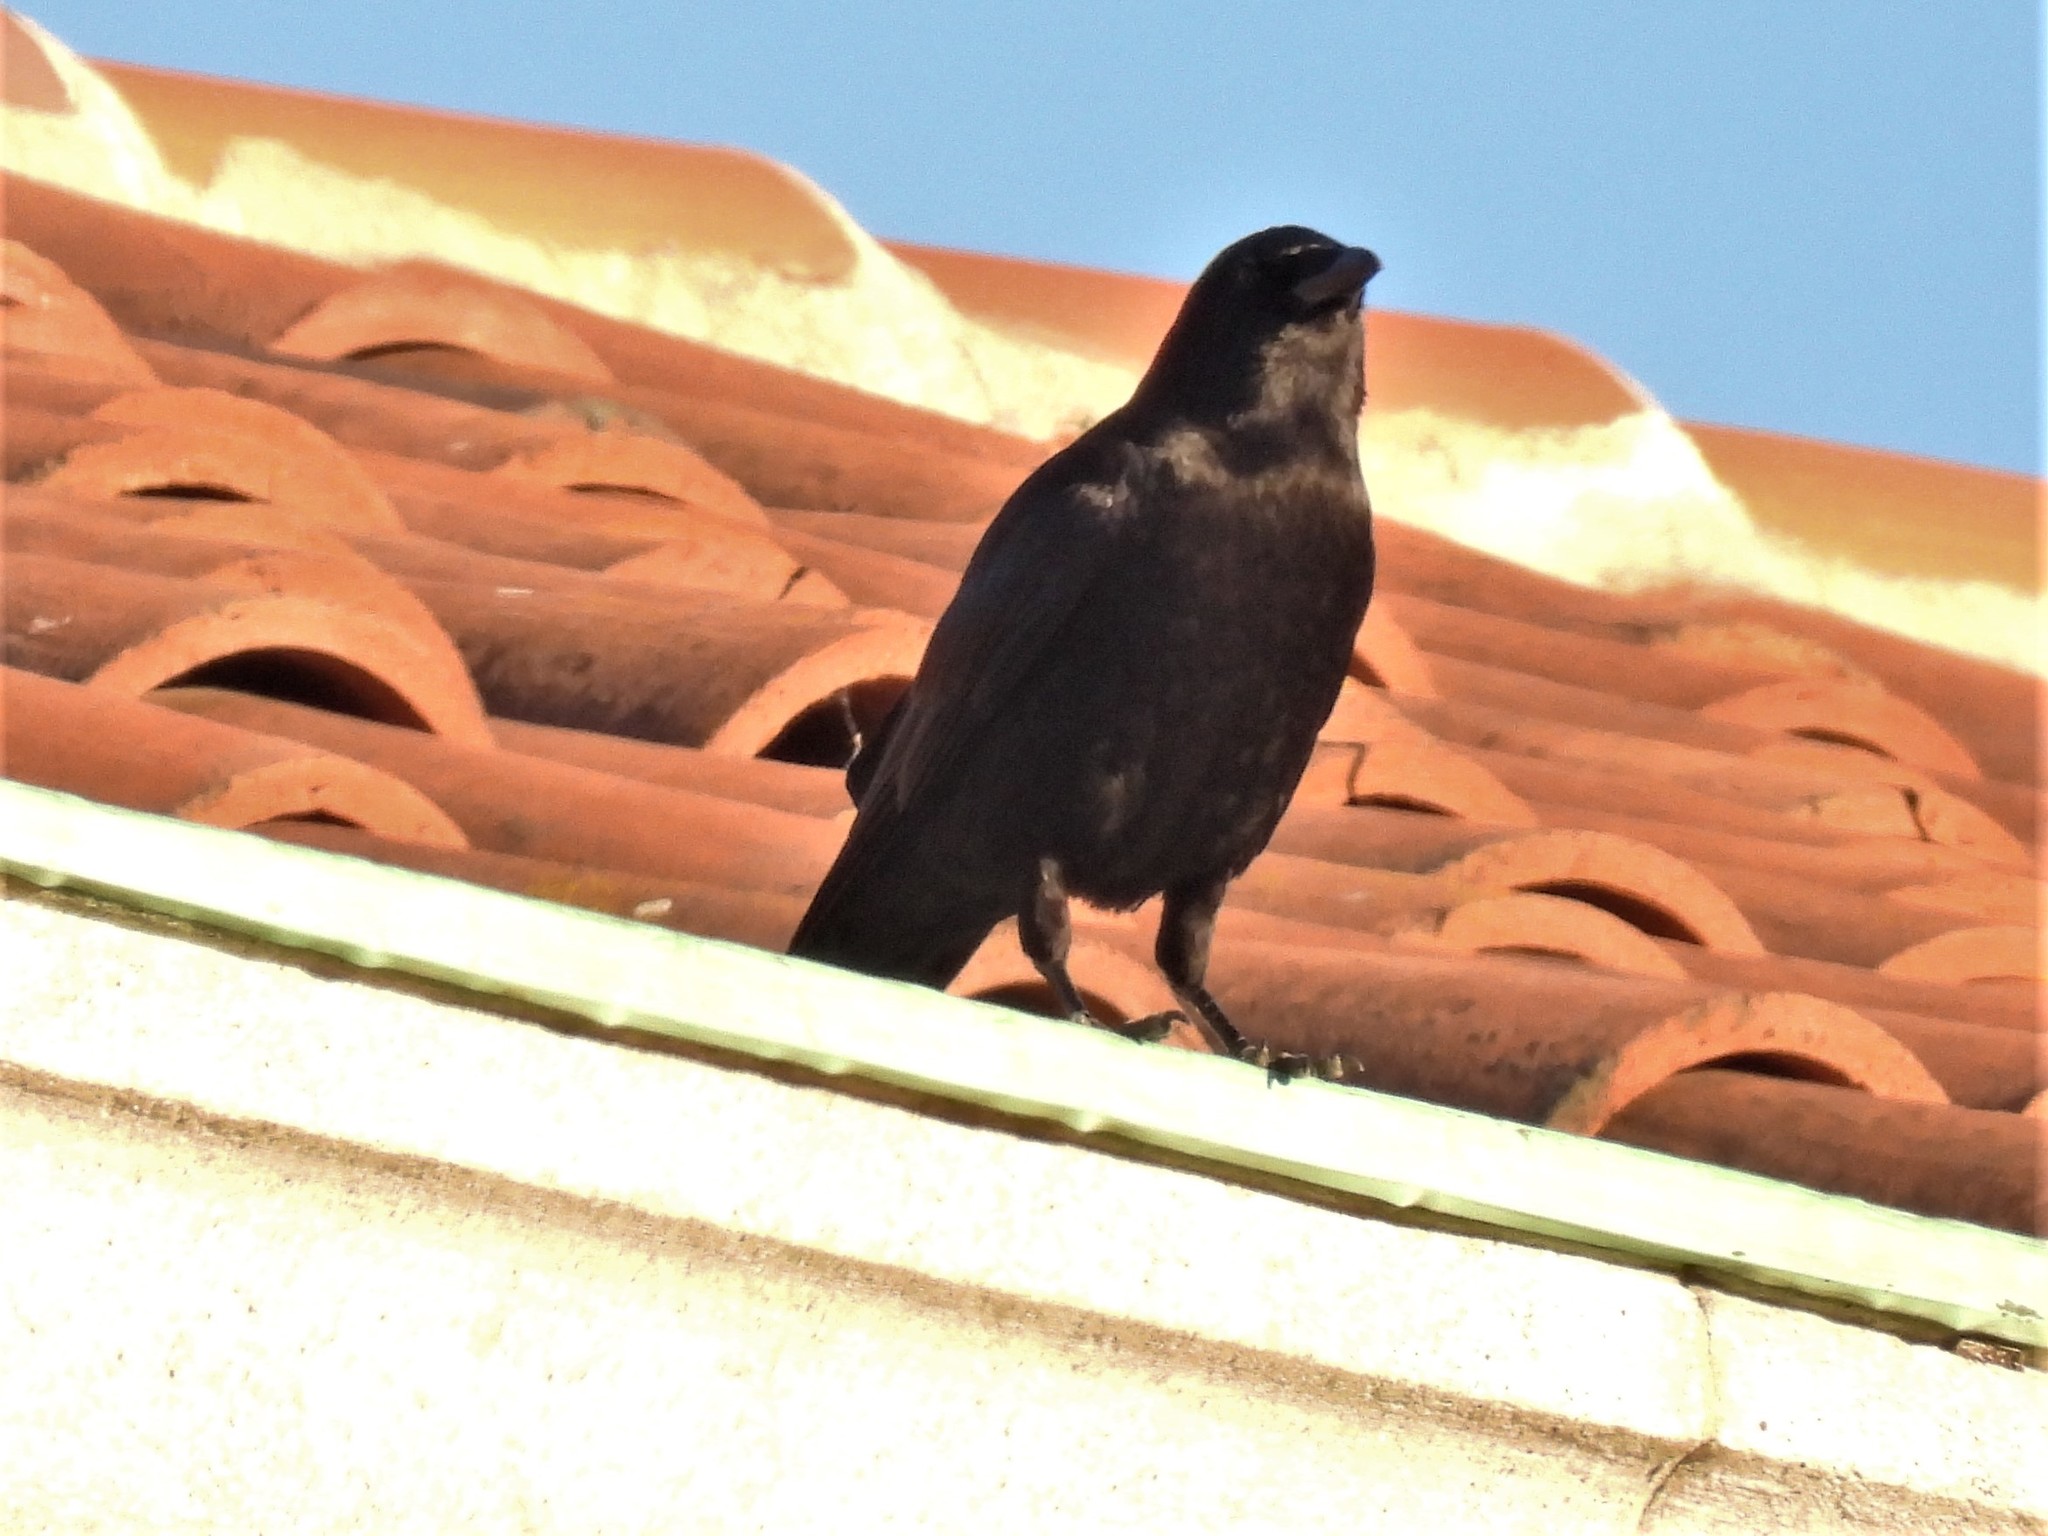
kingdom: Animalia
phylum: Chordata
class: Aves
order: Passeriformes
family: Corvidae
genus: Corvus
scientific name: Corvus brachyrhynchos
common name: American crow
